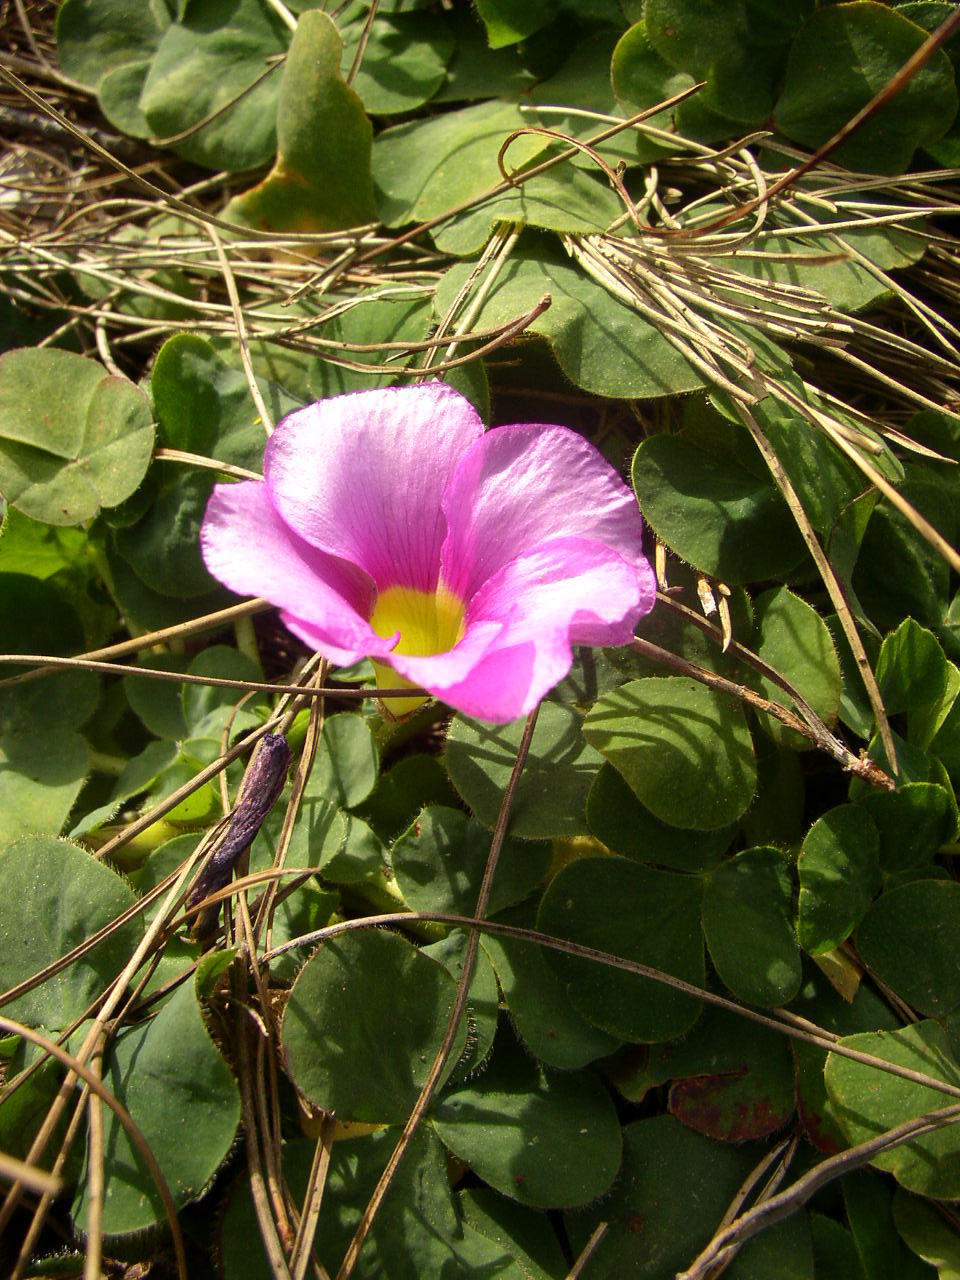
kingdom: Plantae
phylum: Tracheophyta
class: Magnoliopsida
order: Oxalidales
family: Oxalidaceae
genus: Oxalis
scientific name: Oxalis purpurea
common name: Purple woodsorrel
